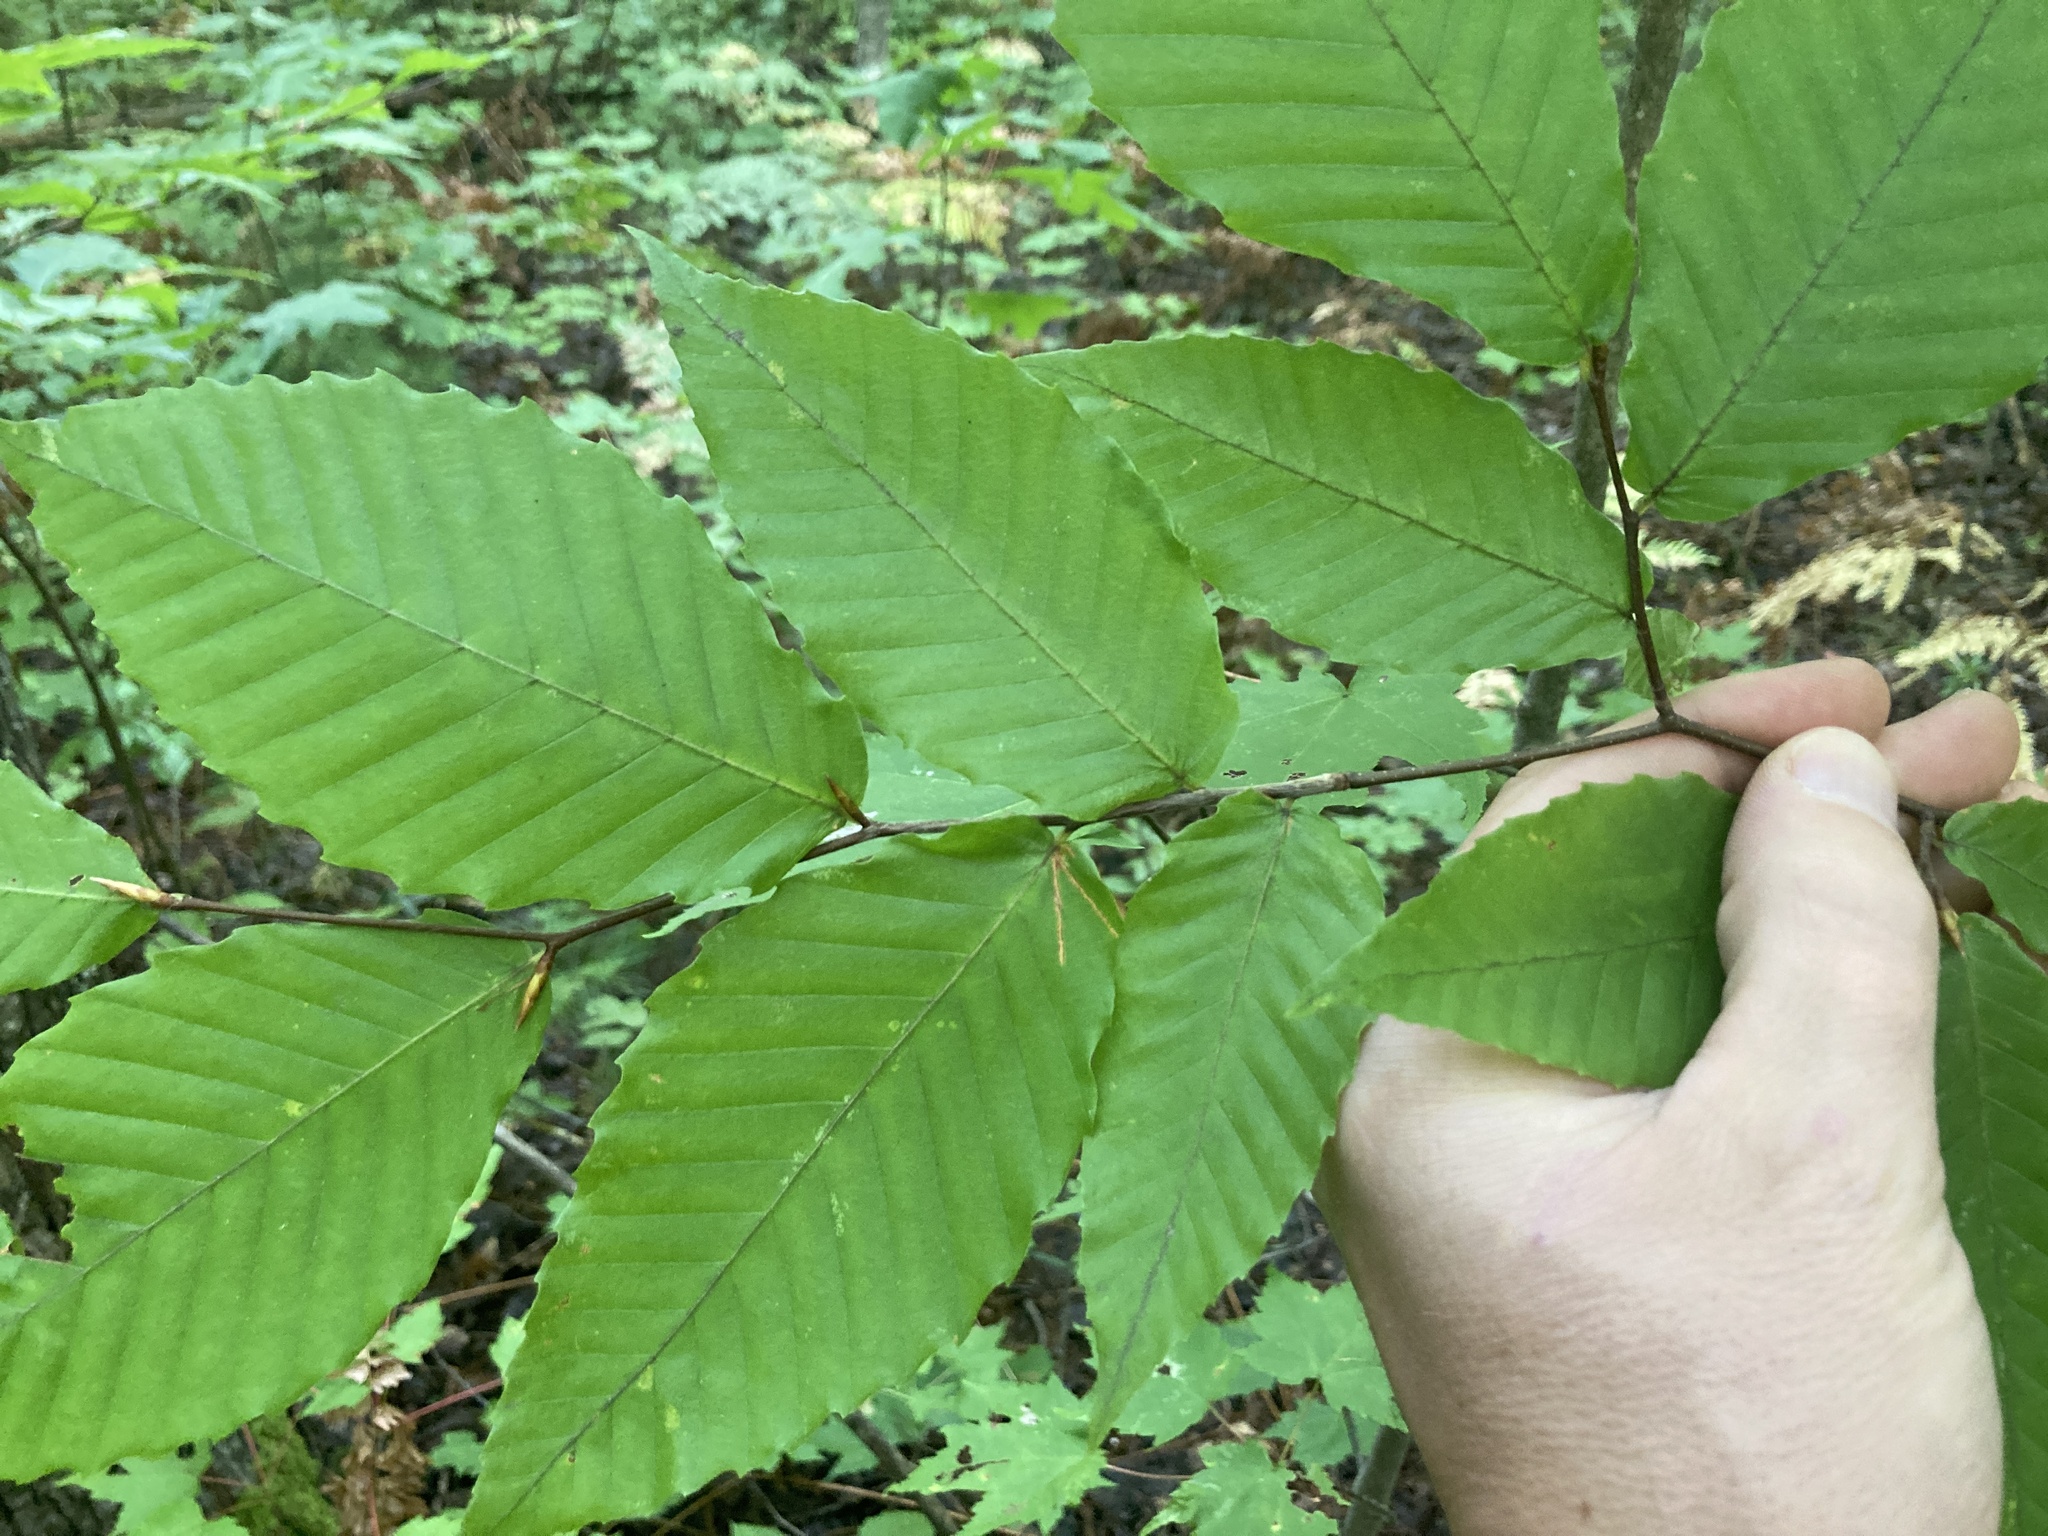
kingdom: Plantae
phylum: Tracheophyta
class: Magnoliopsida
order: Fagales
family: Fagaceae
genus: Fagus
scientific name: Fagus grandifolia
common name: American beech
